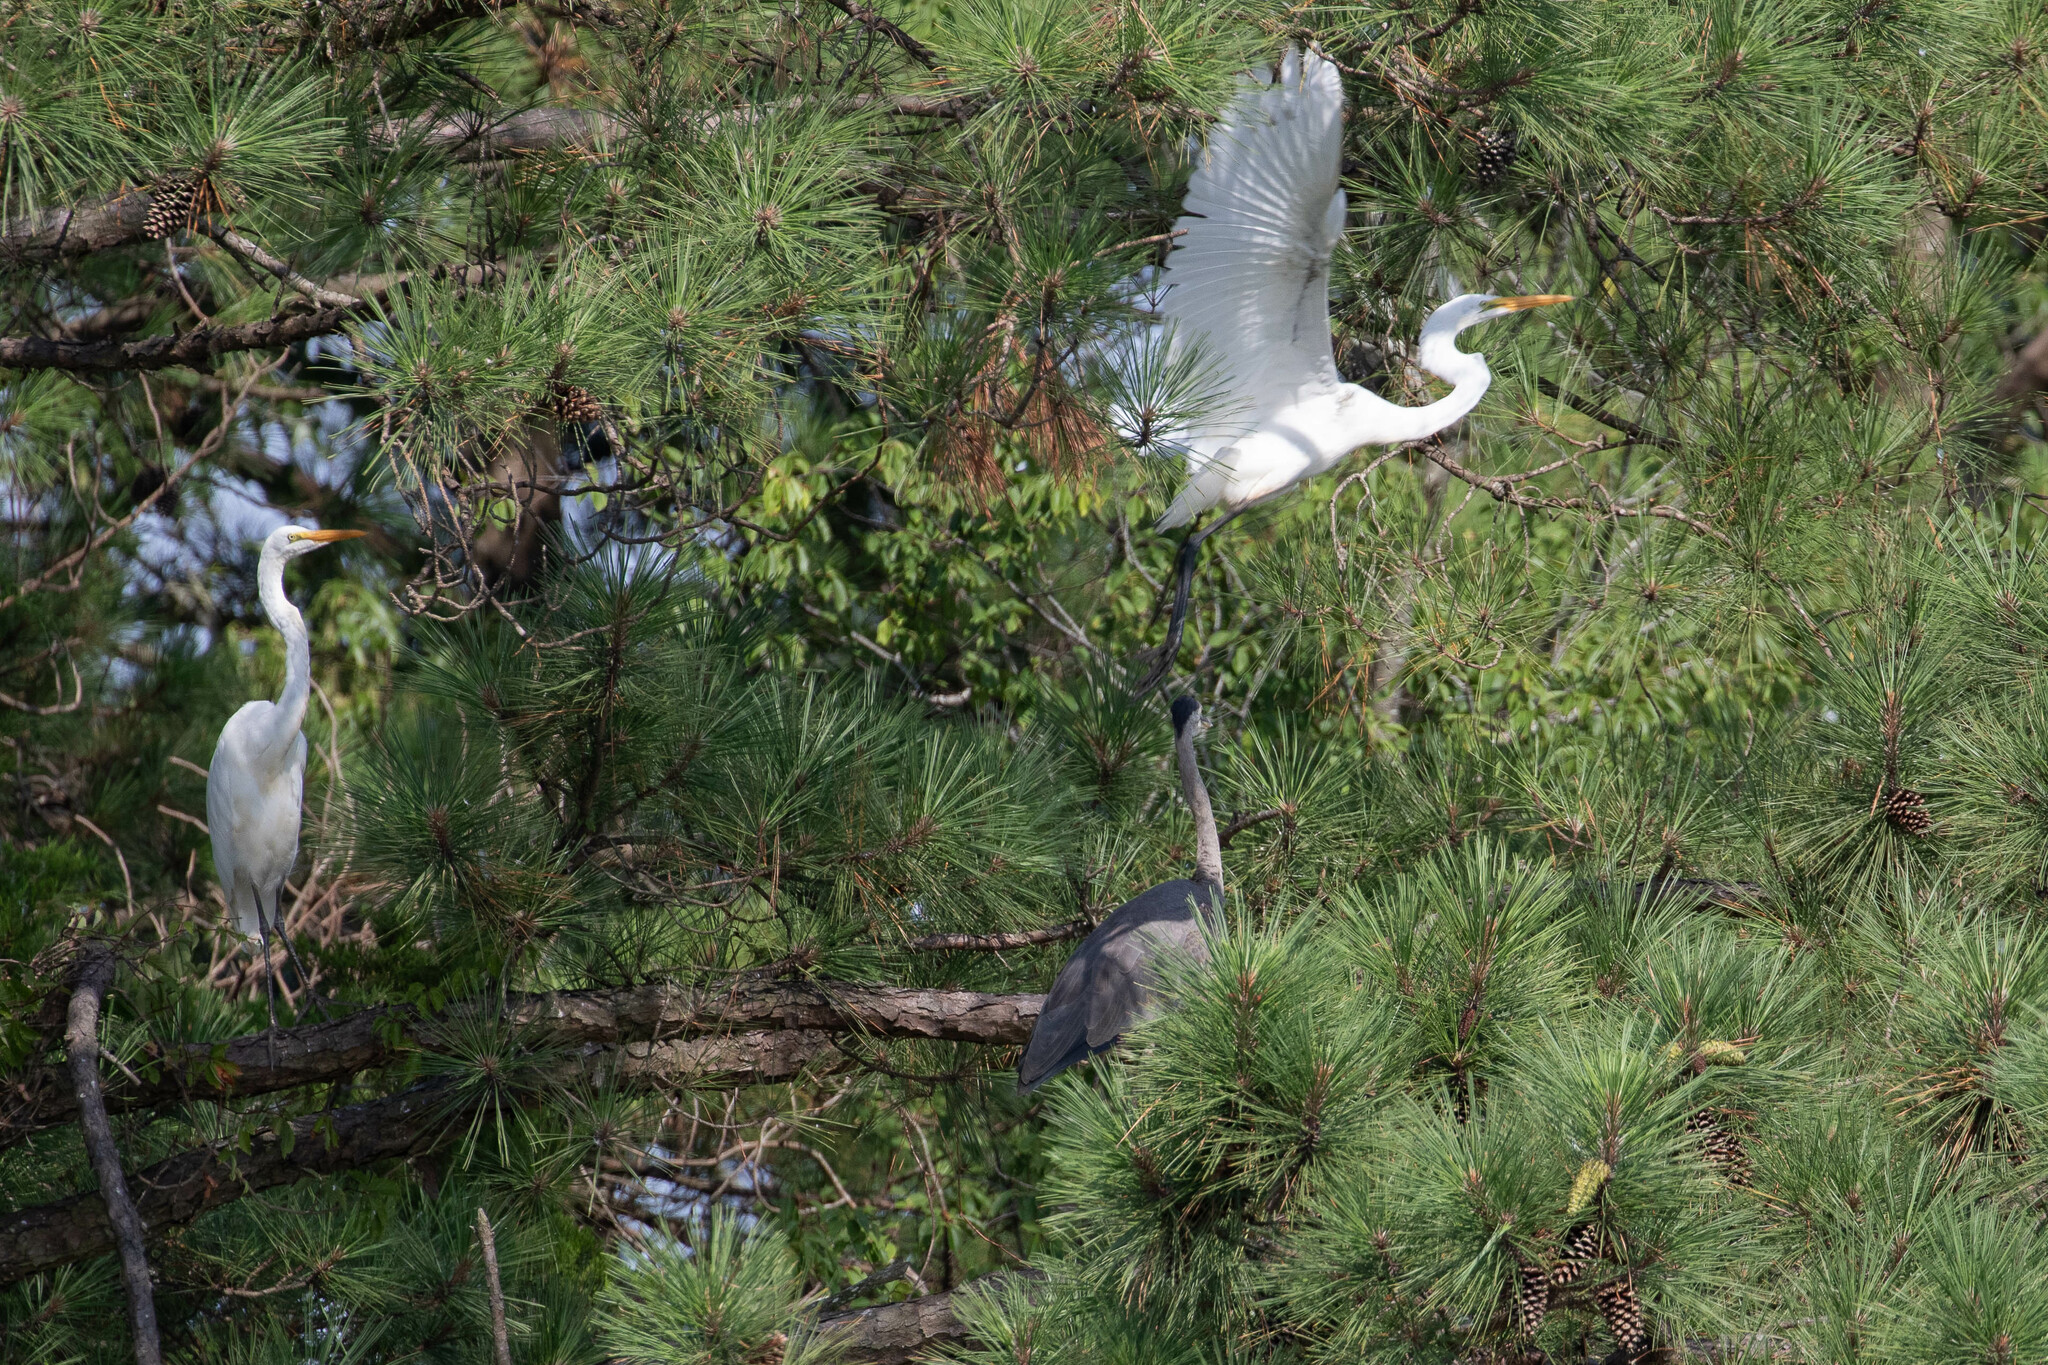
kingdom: Animalia
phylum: Chordata
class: Aves
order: Pelecaniformes
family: Ardeidae
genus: Ardea
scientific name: Ardea alba
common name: Great egret
